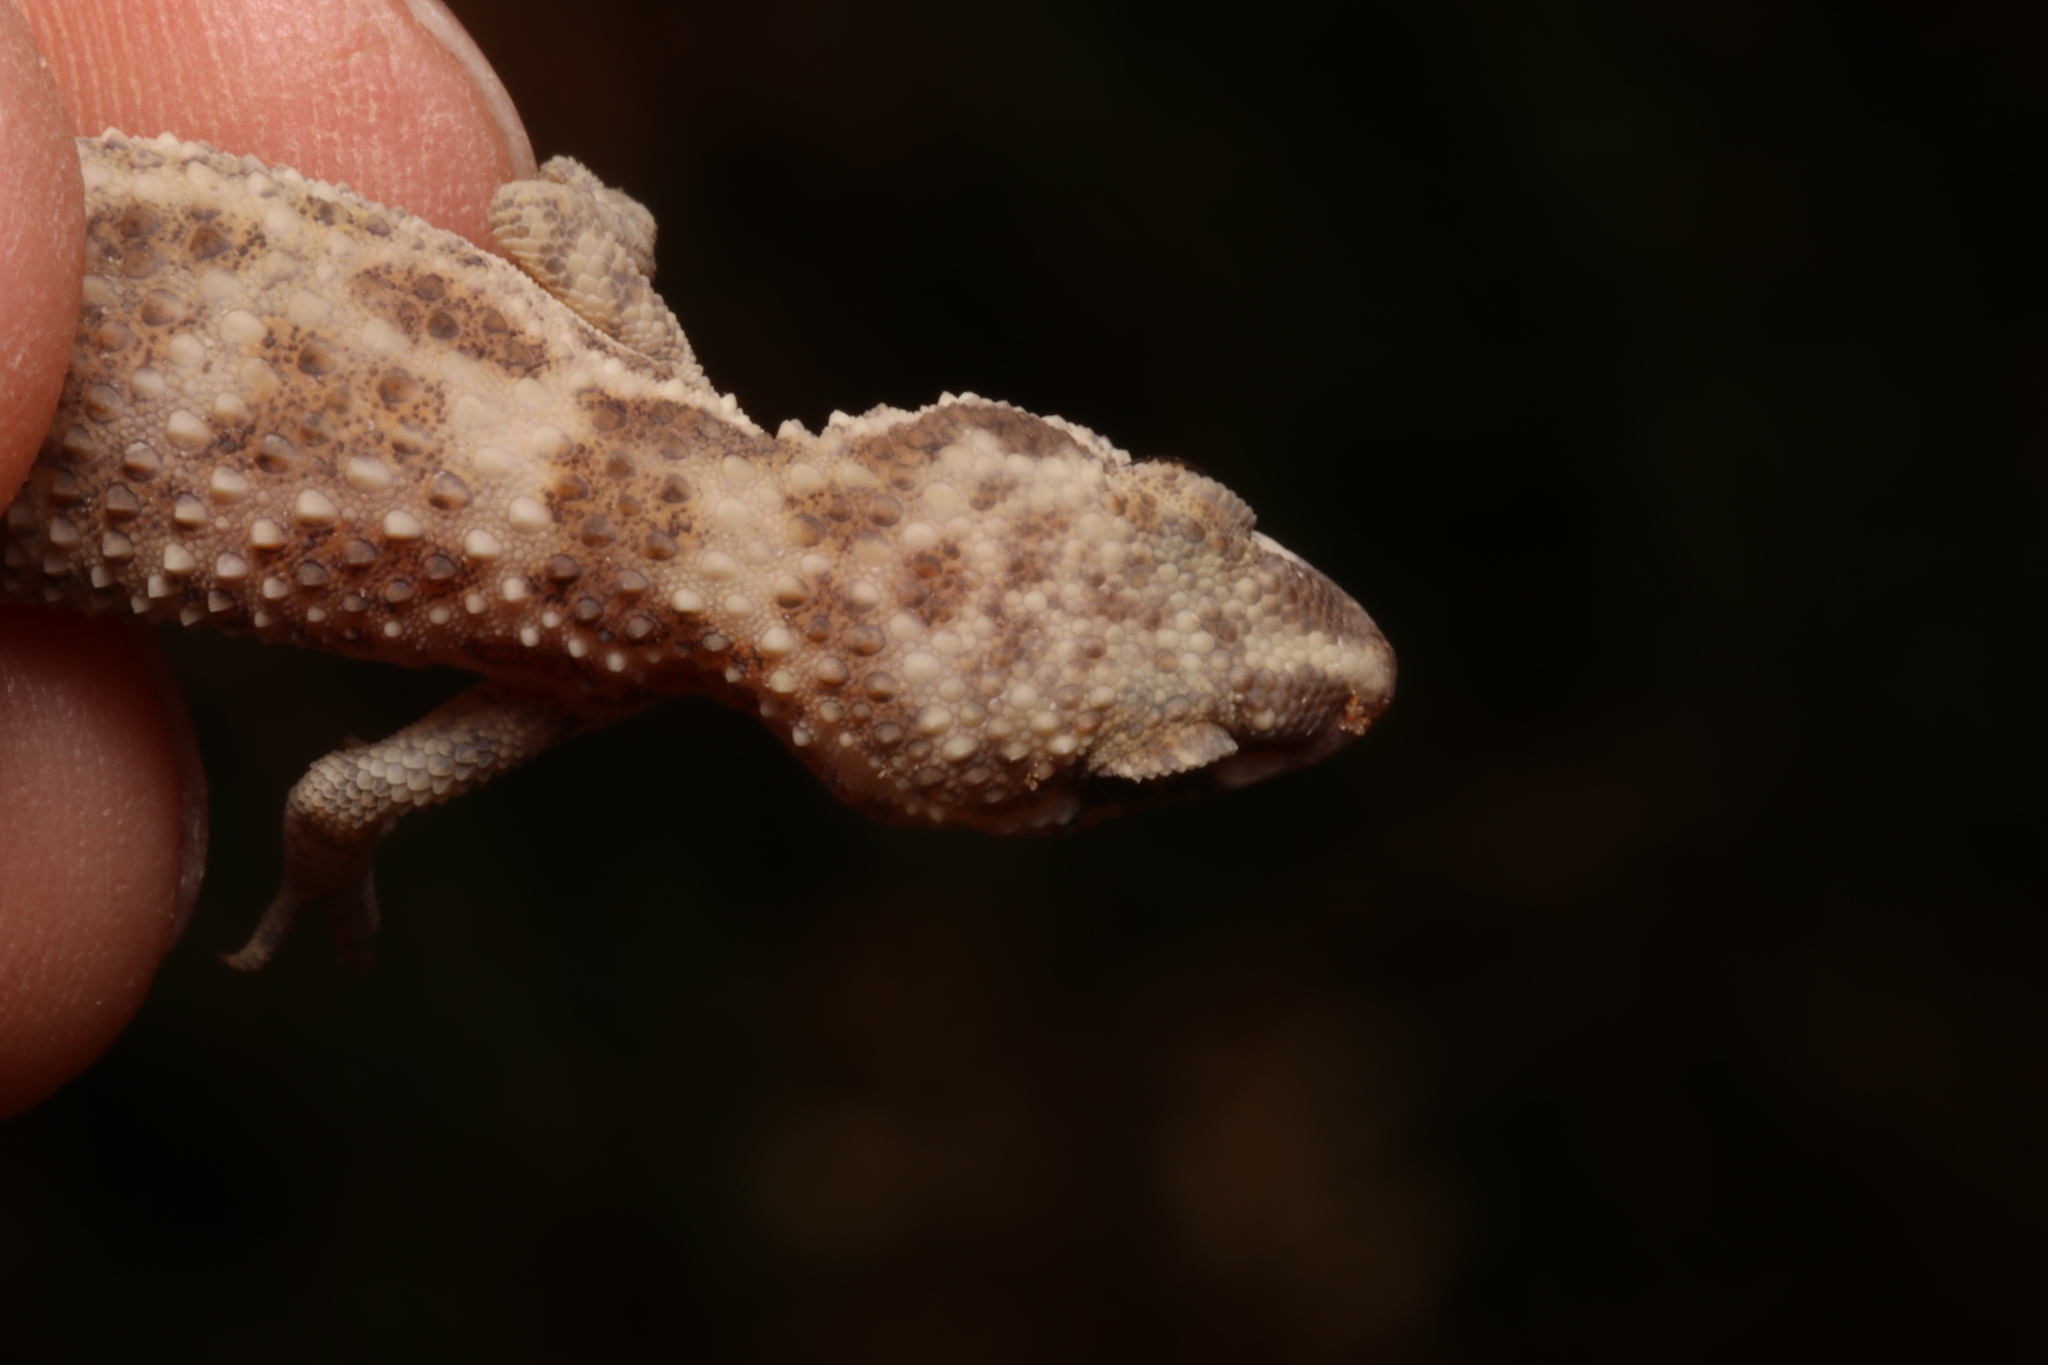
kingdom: Animalia
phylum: Chordata
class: Squamata
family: Gekkonidae
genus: Bunopus
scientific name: Bunopus tuberculatus
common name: Southern tuberculated gecko
